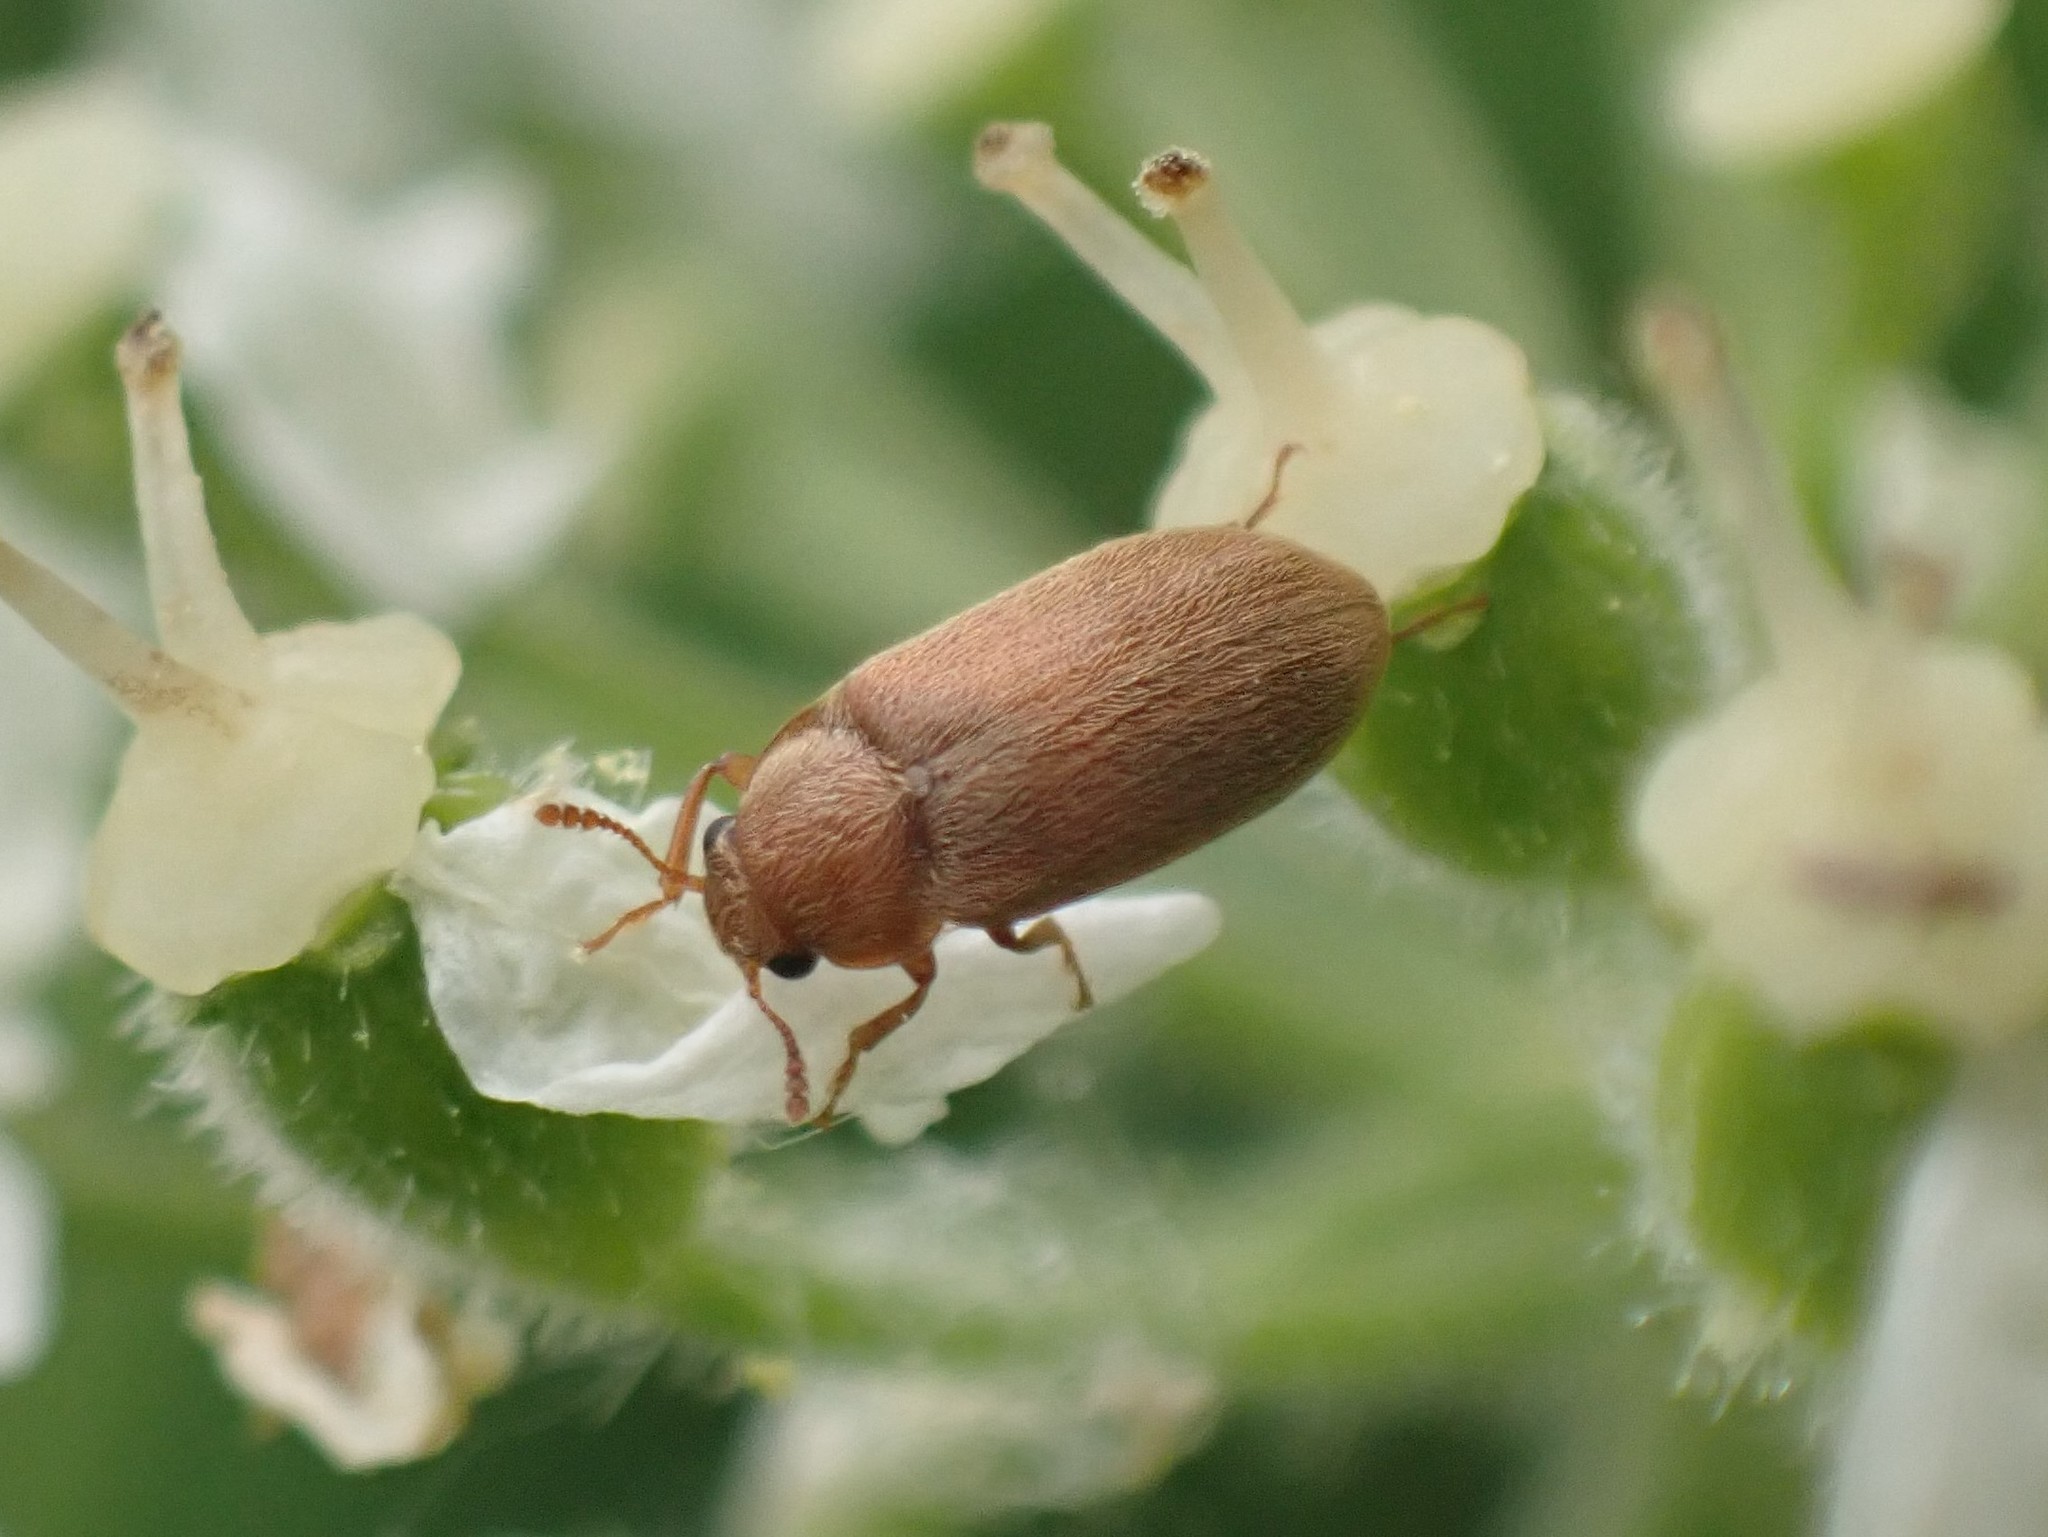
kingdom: Animalia
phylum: Arthropoda
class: Insecta
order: Coleoptera
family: Byturidae
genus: Byturus
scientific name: Byturus unicolor
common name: Raspberry fruitworm beetle
